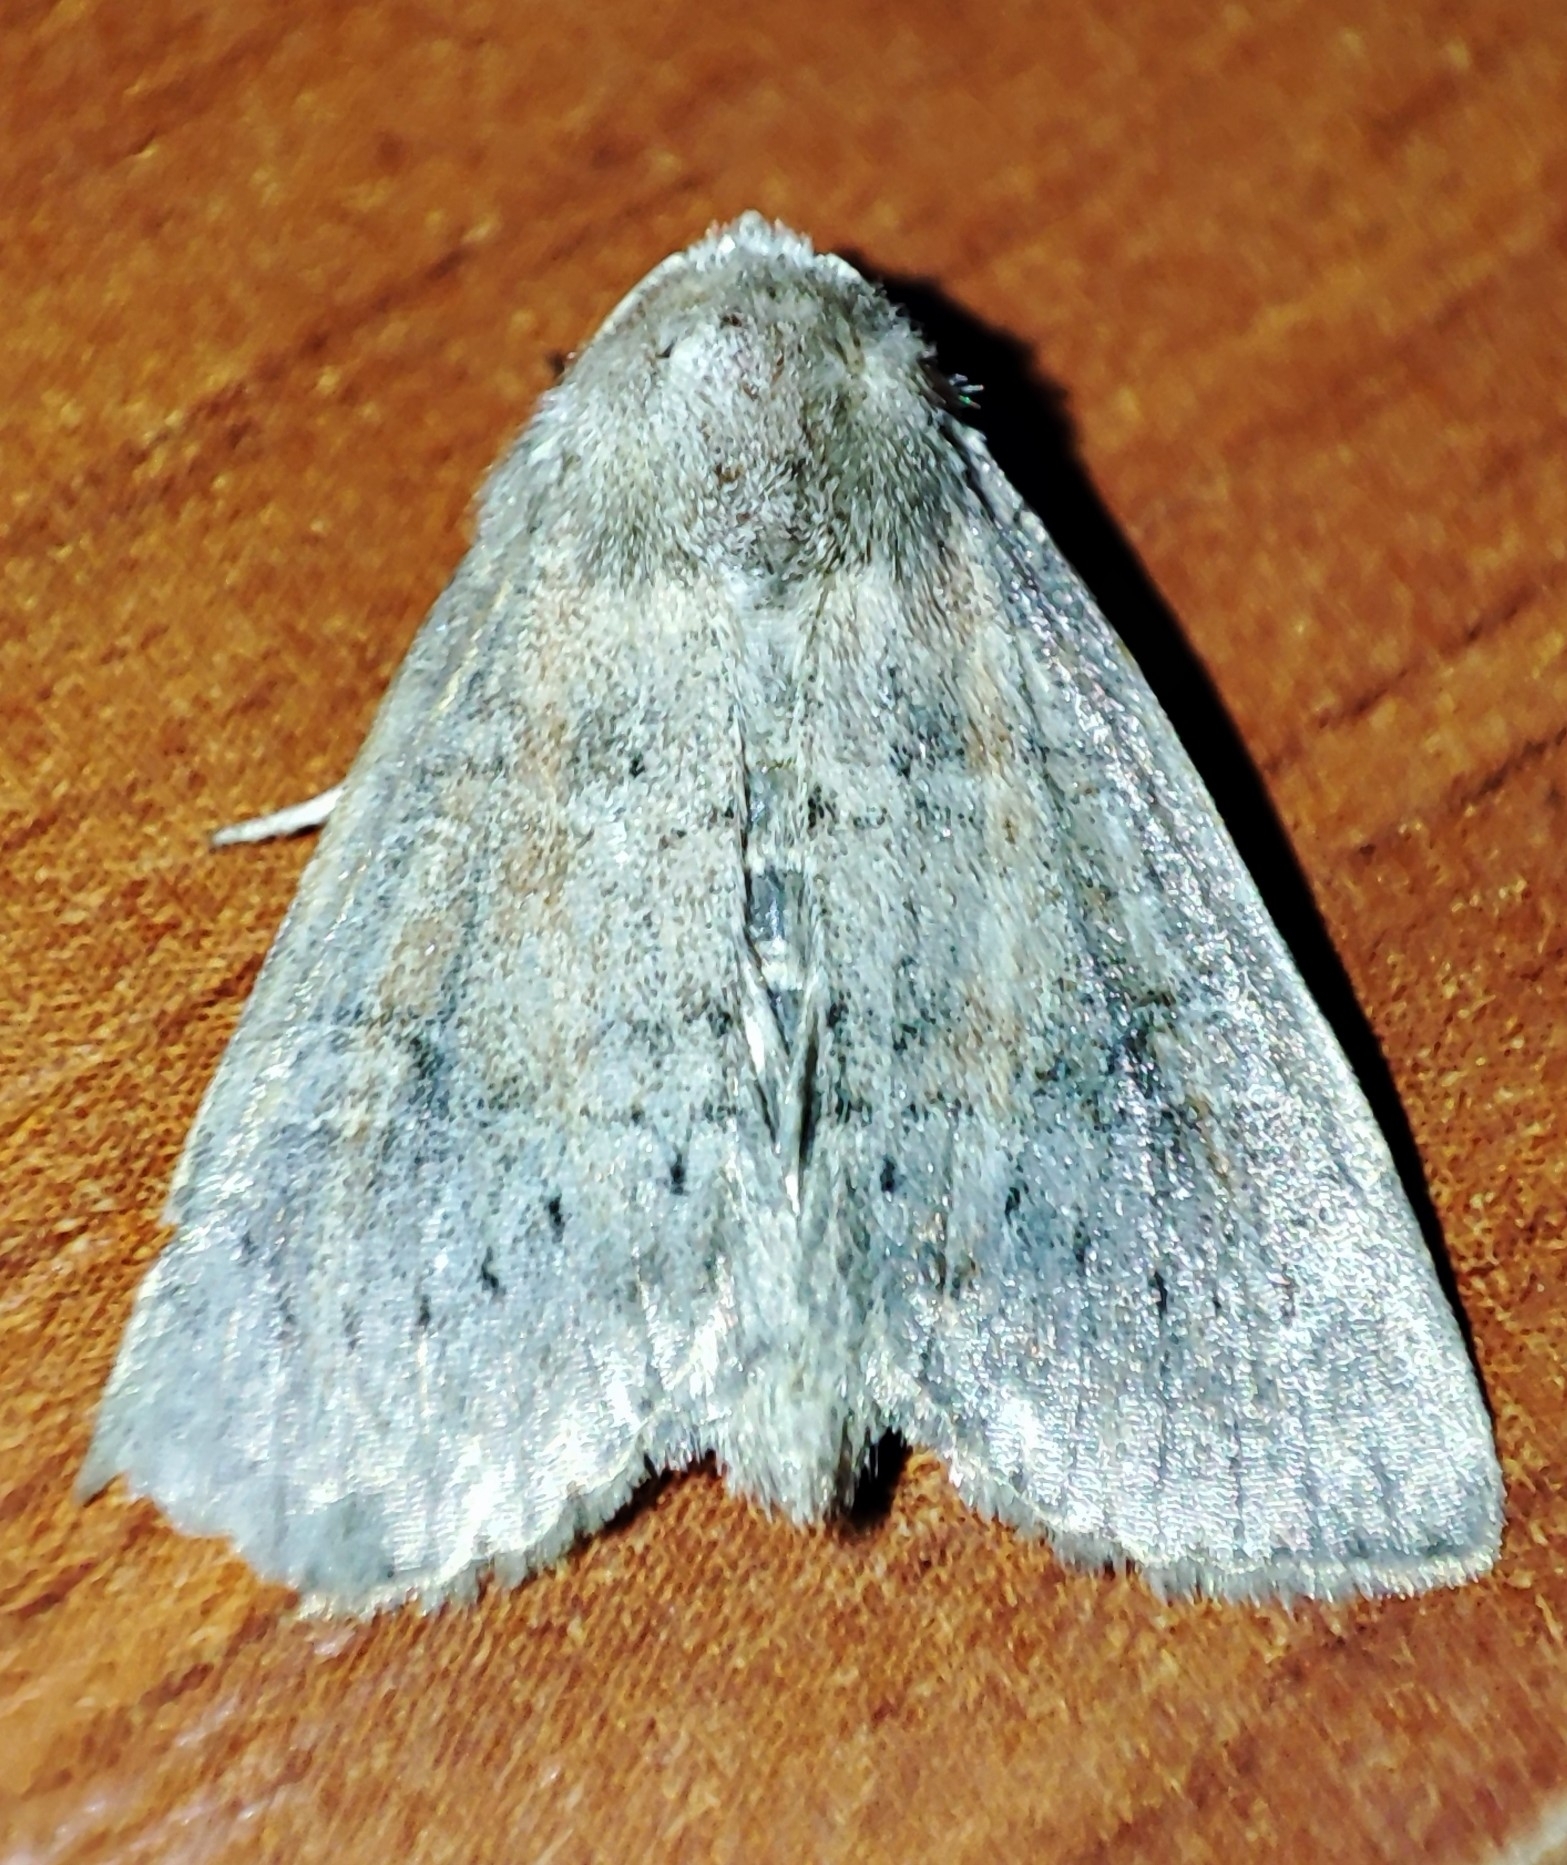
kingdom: Animalia
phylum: Arthropoda
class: Insecta
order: Lepidoptera
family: Noctuidae
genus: Parastichtis
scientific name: Parastichtis suspecta
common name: Suspected
